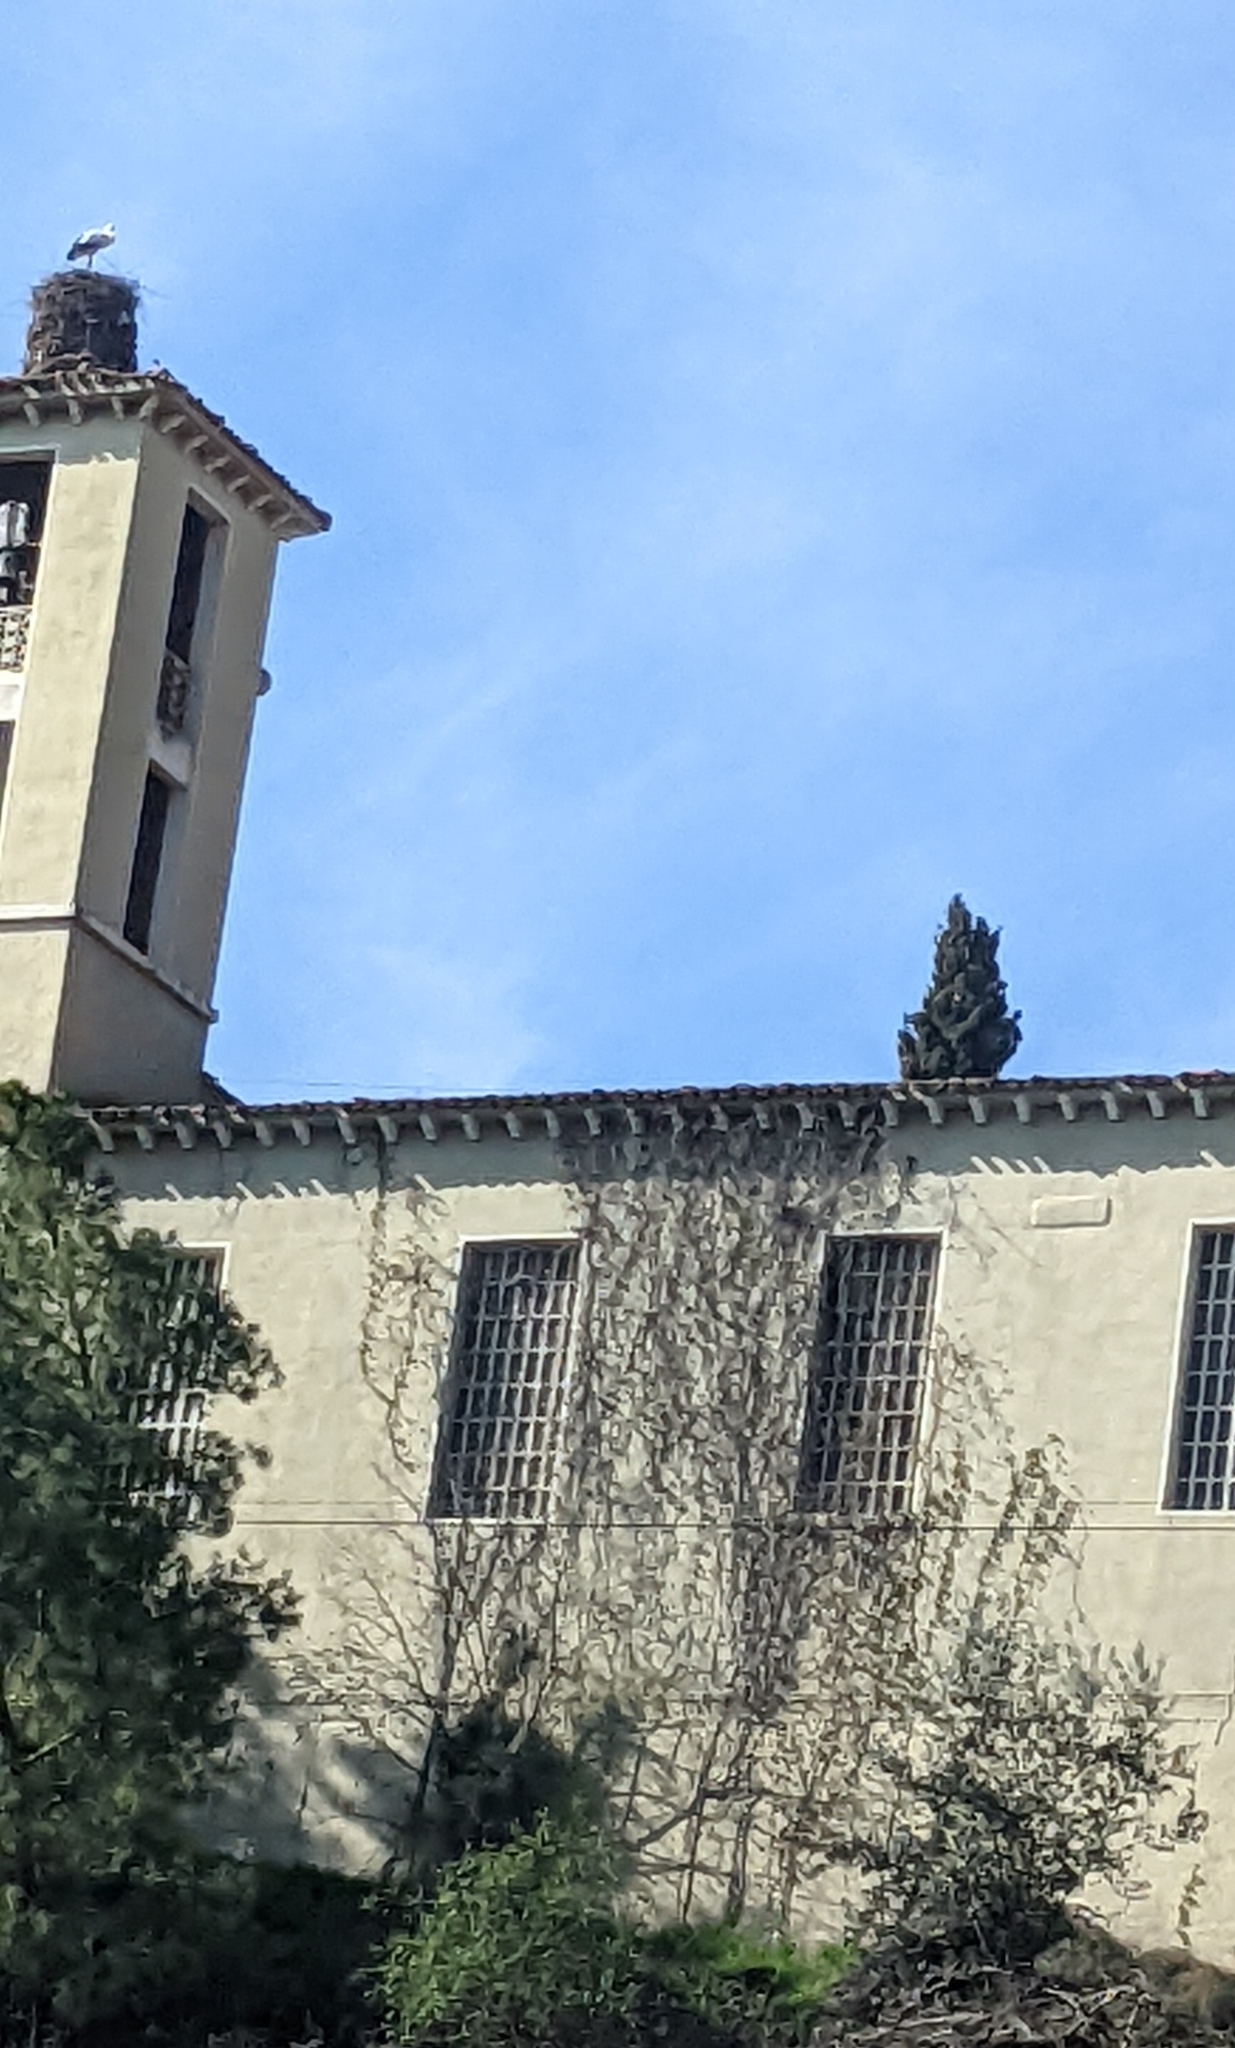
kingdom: Animalia
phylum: Chordata
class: Aves
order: Ciconiiformes
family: Ciconiidae
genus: Ciconia
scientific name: Ciconia ciconia
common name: White stork
